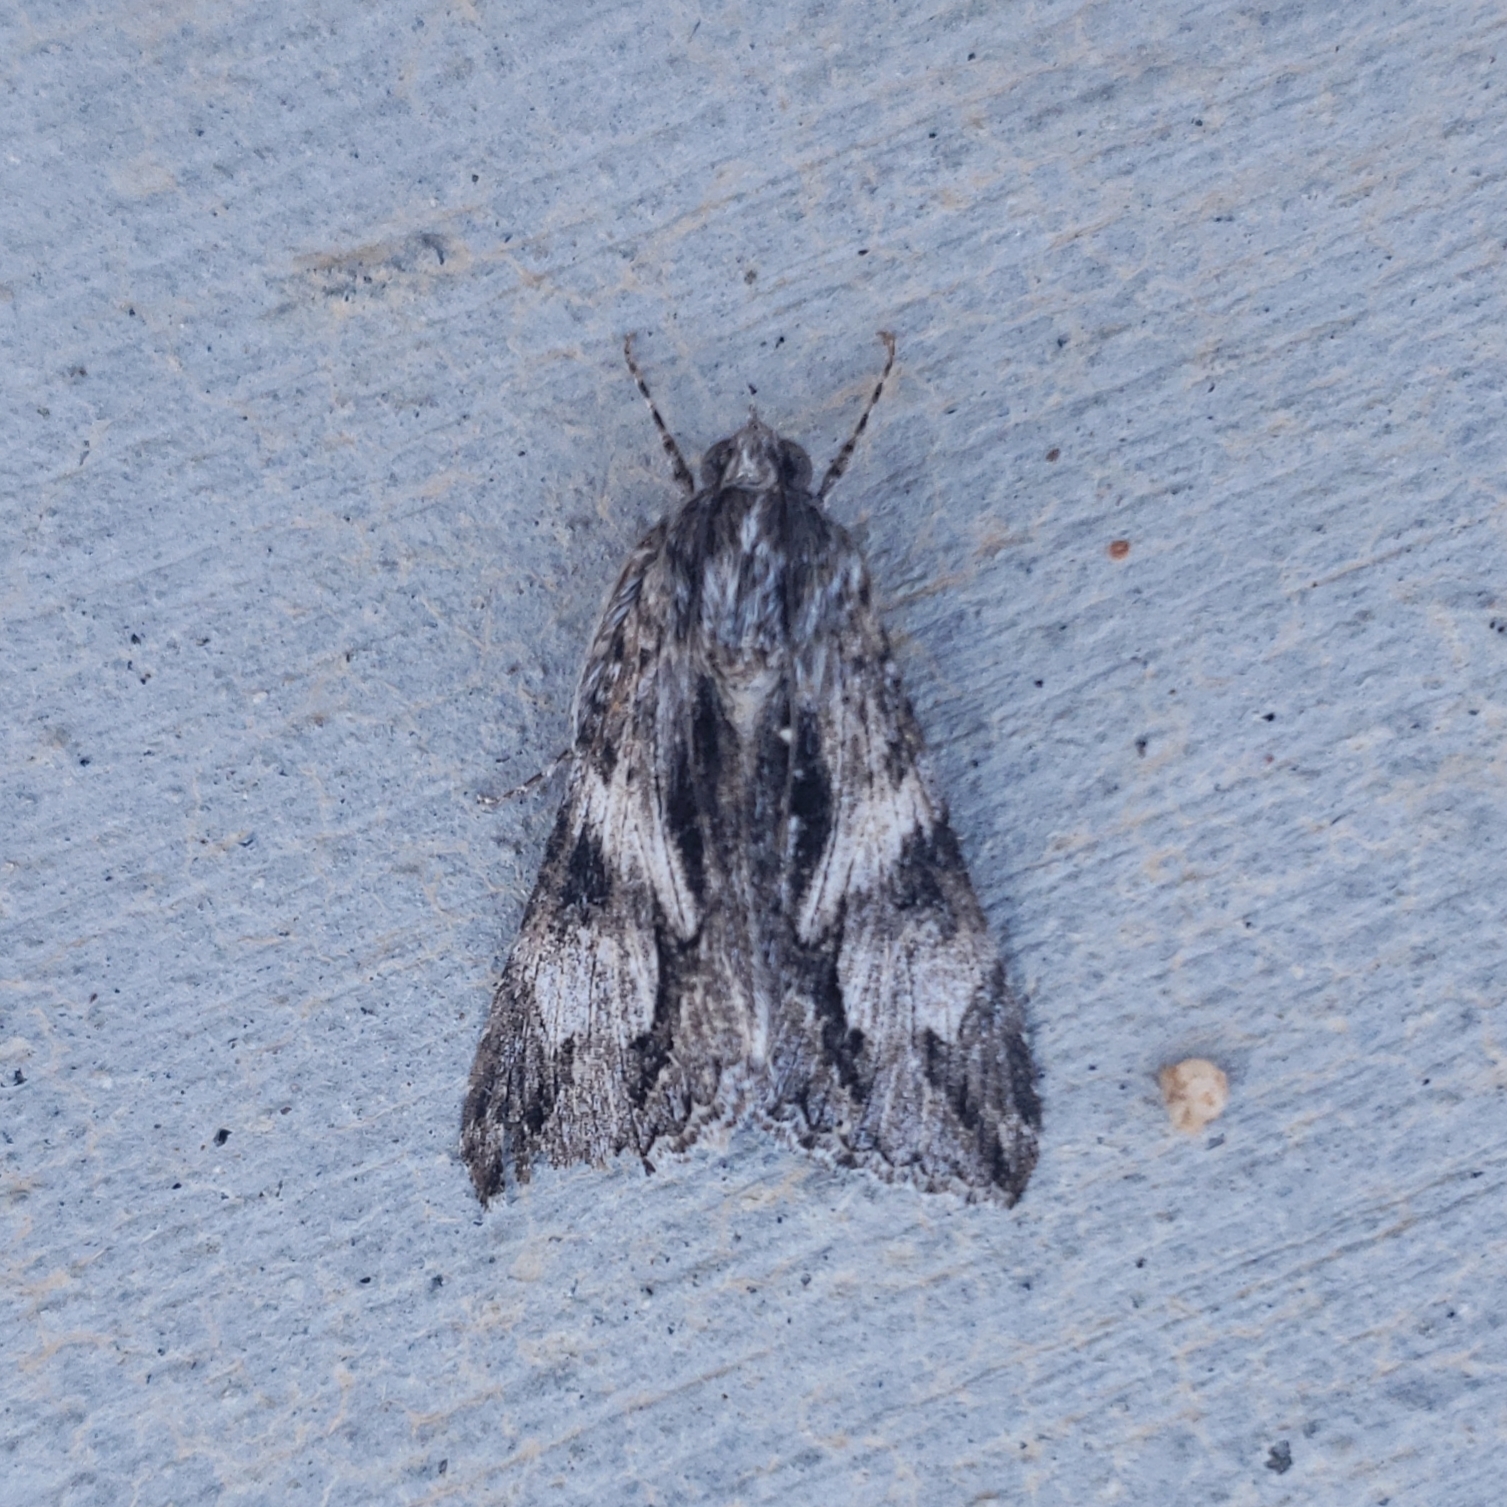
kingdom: Animalia
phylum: Arthropoda
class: Insecta
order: Lepidoptera
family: Erebidae
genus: Melipotis
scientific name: Melipotis jucunda
